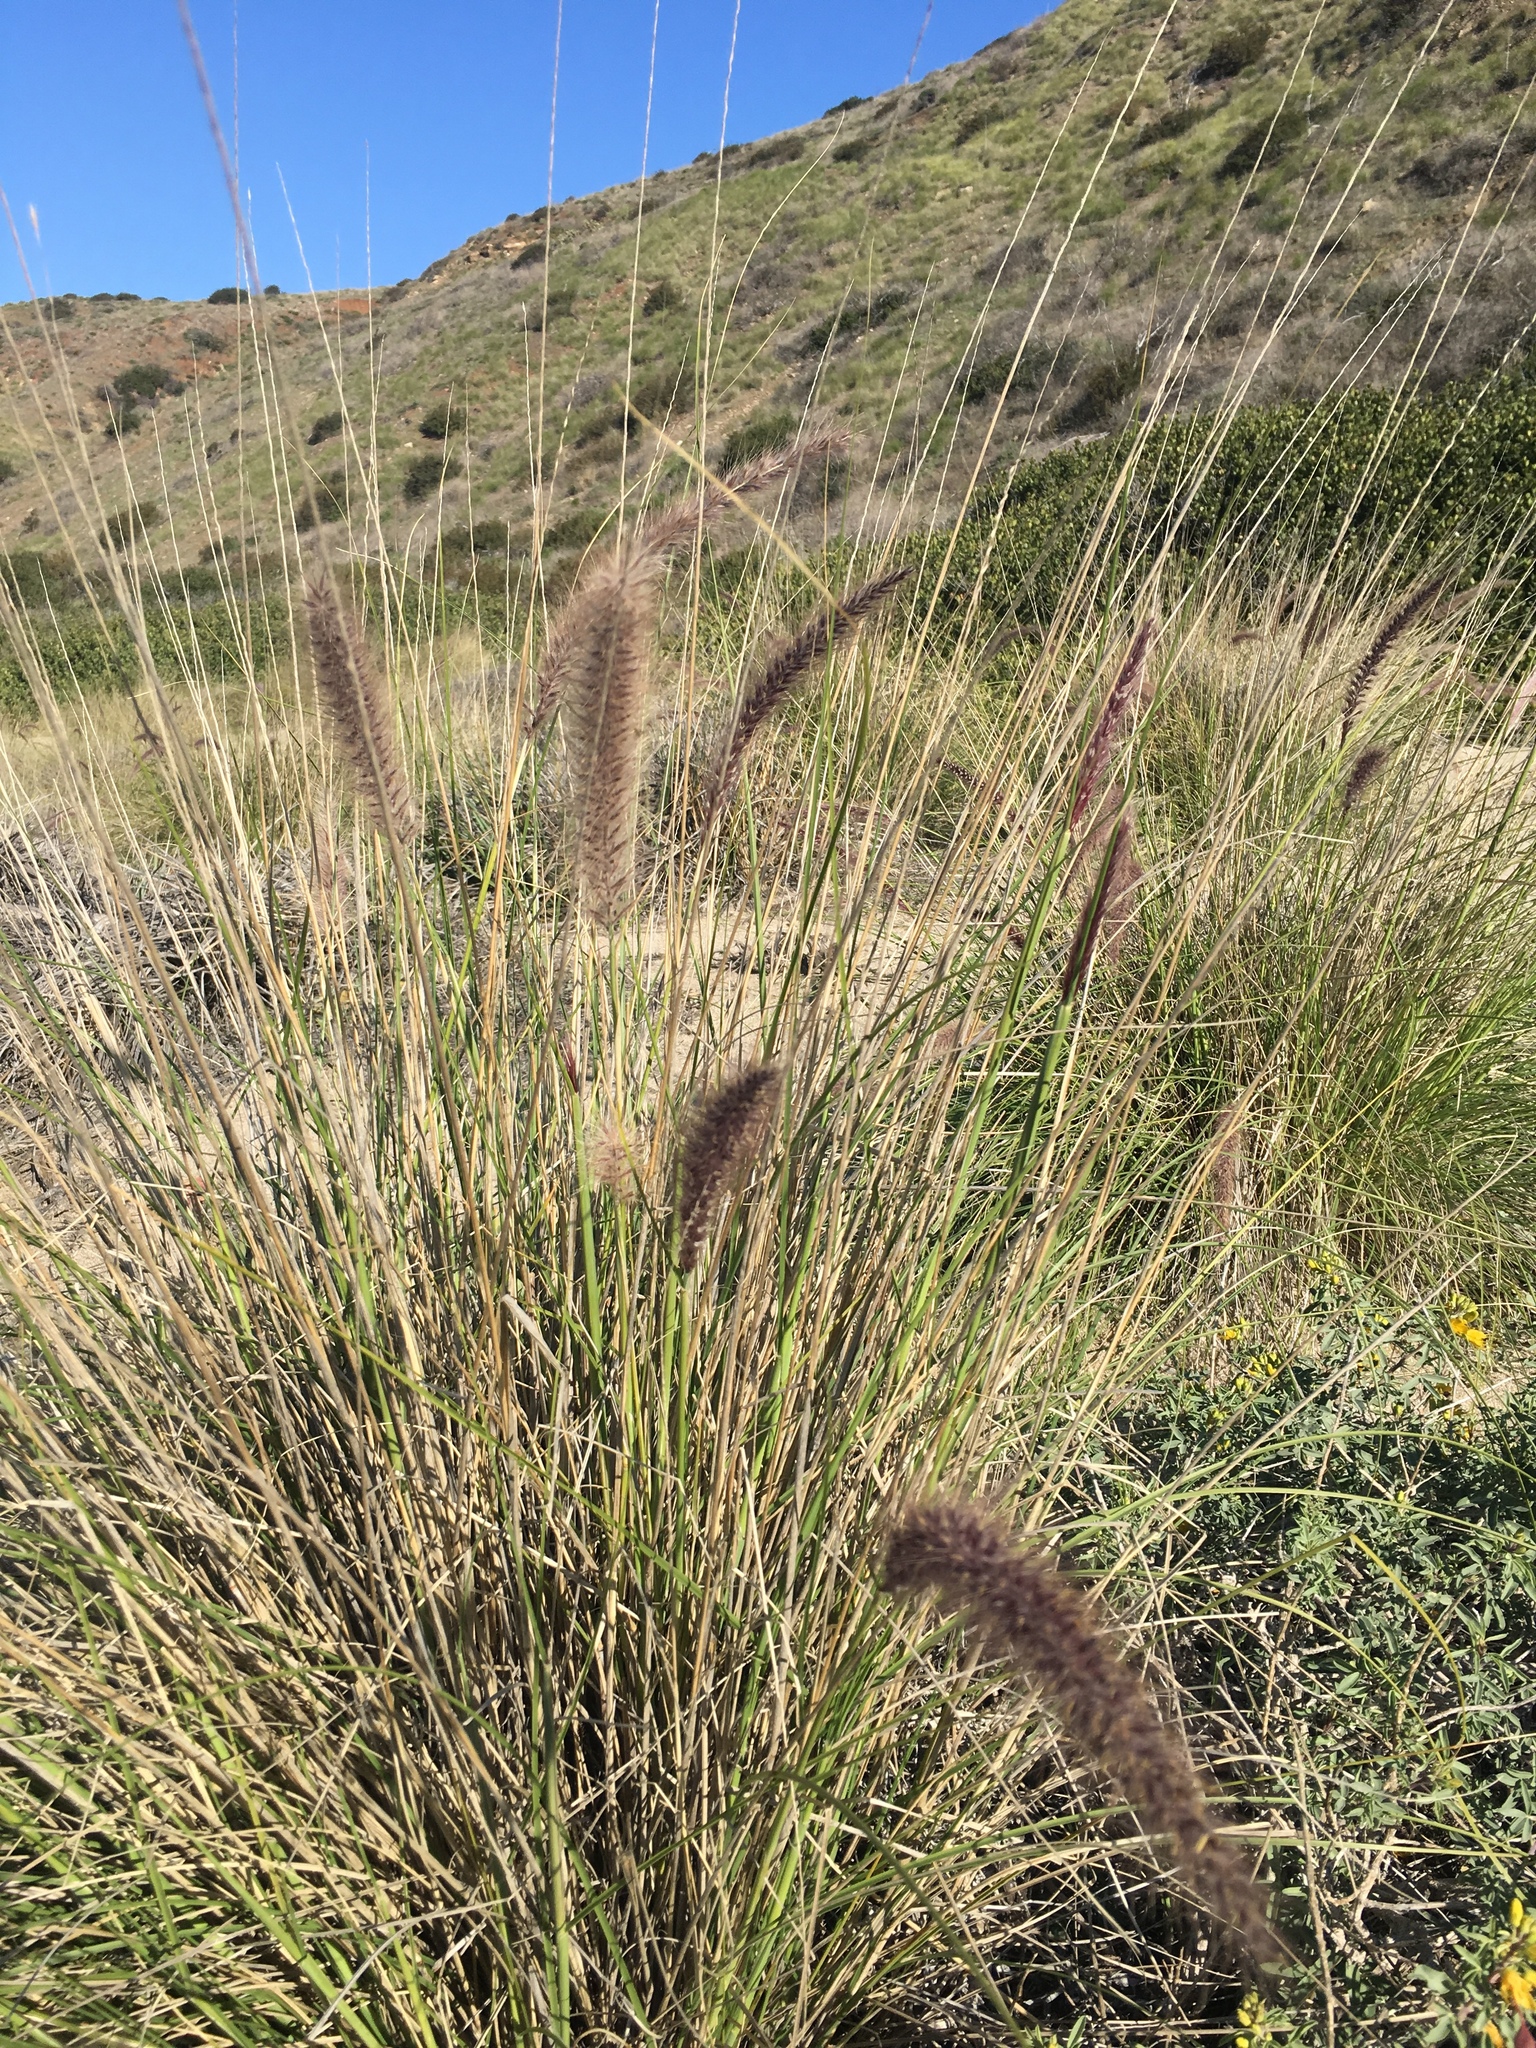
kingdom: Plantae
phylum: Tracheophyta
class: Liliopsida
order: Poales
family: Poaceae
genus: Cenchrus
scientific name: Cenchrus setaceus
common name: Crimson fountaingrass
